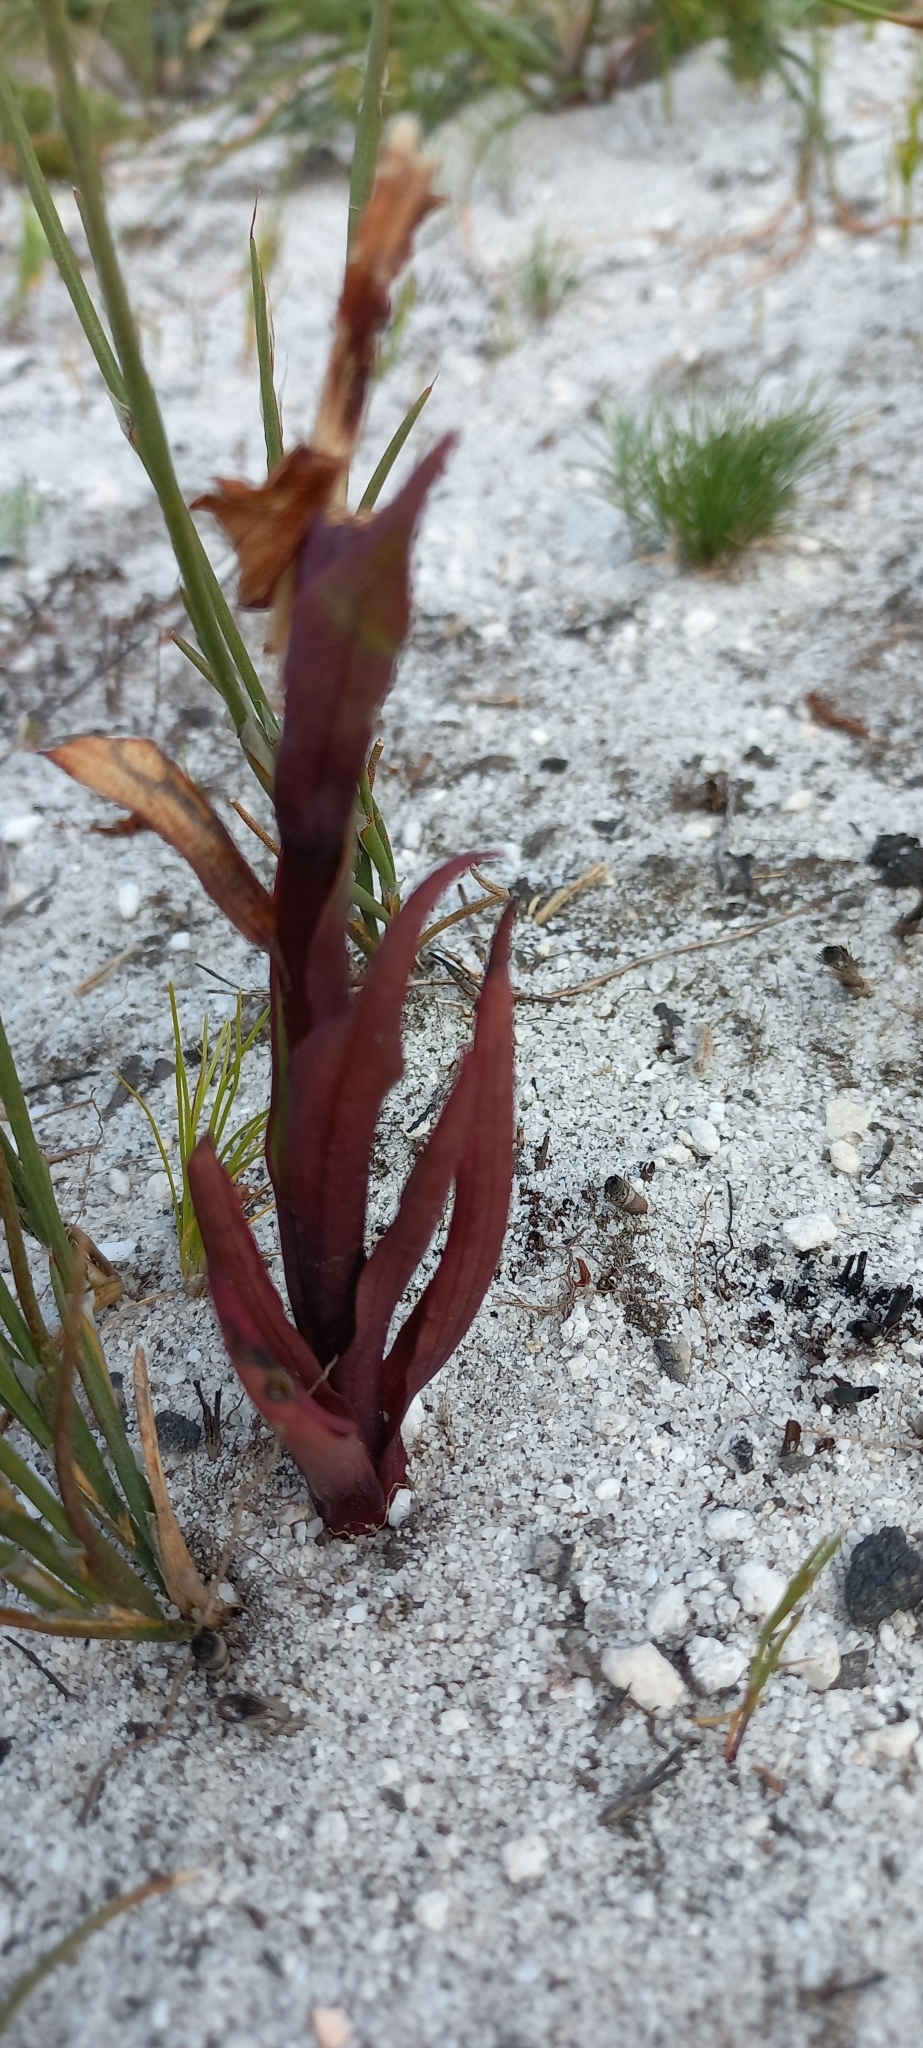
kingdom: Plantae
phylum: Tracheophyta
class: Liliopsida
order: Asparagales
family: Orchidaceae
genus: Disa
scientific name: Disa atrorubens
